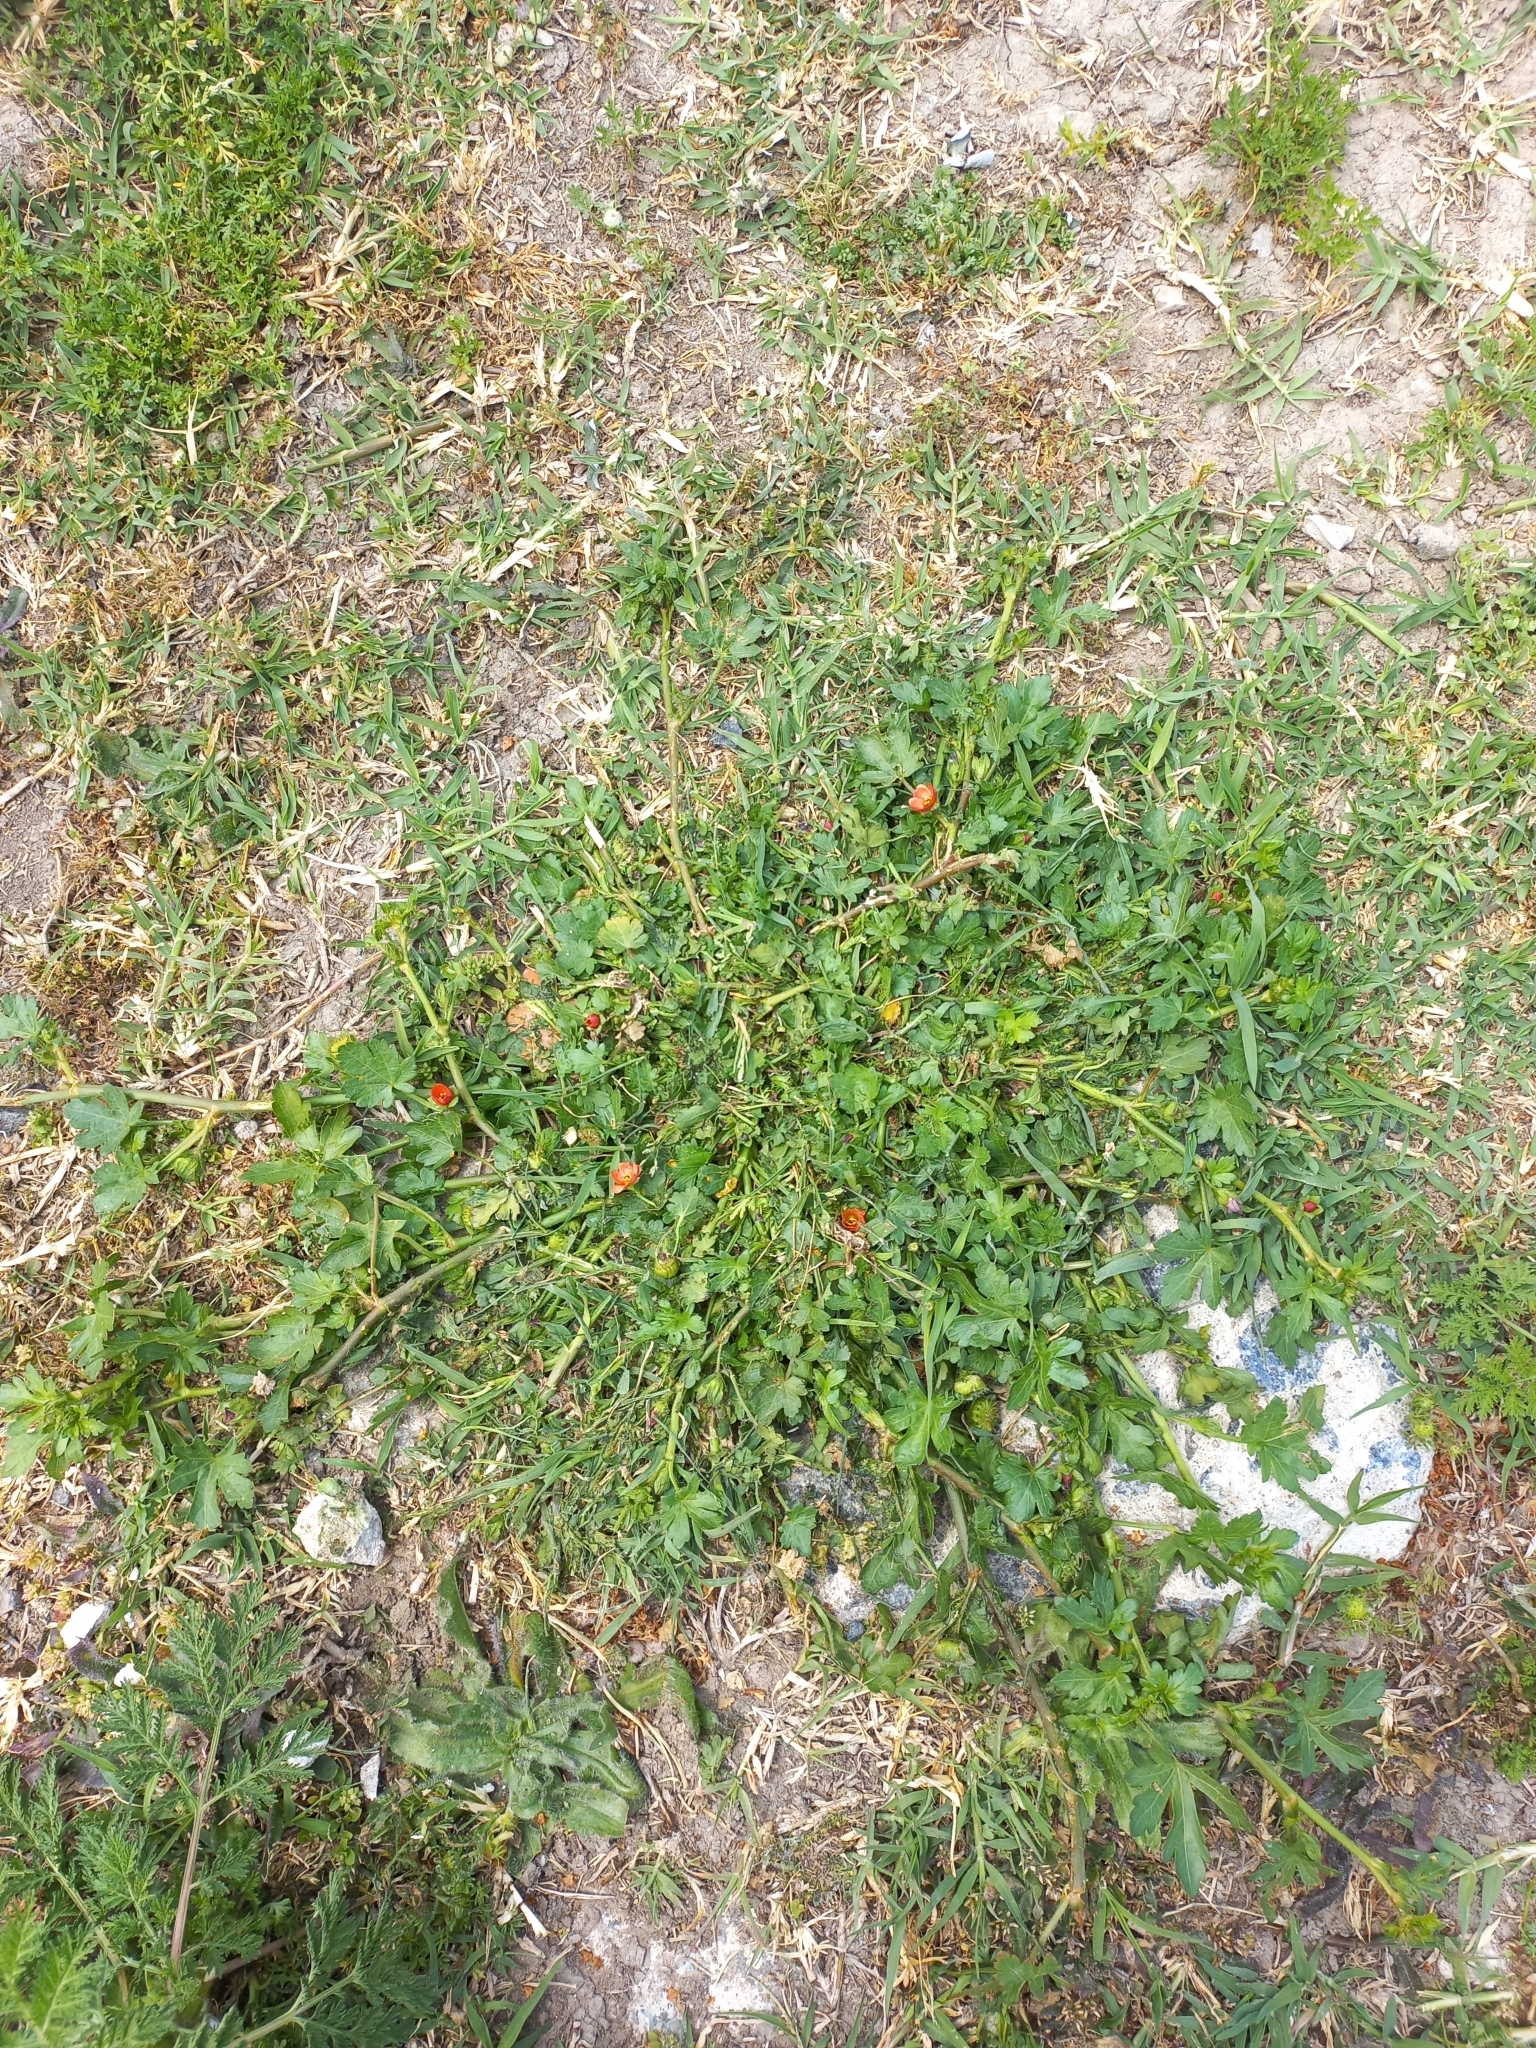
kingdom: Plantae
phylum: Tracheophyta
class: Magnoliopsida
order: Malvales
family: Malvaceae
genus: Modiola
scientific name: Modiola caroliniana
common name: Carolina bristlemallow
